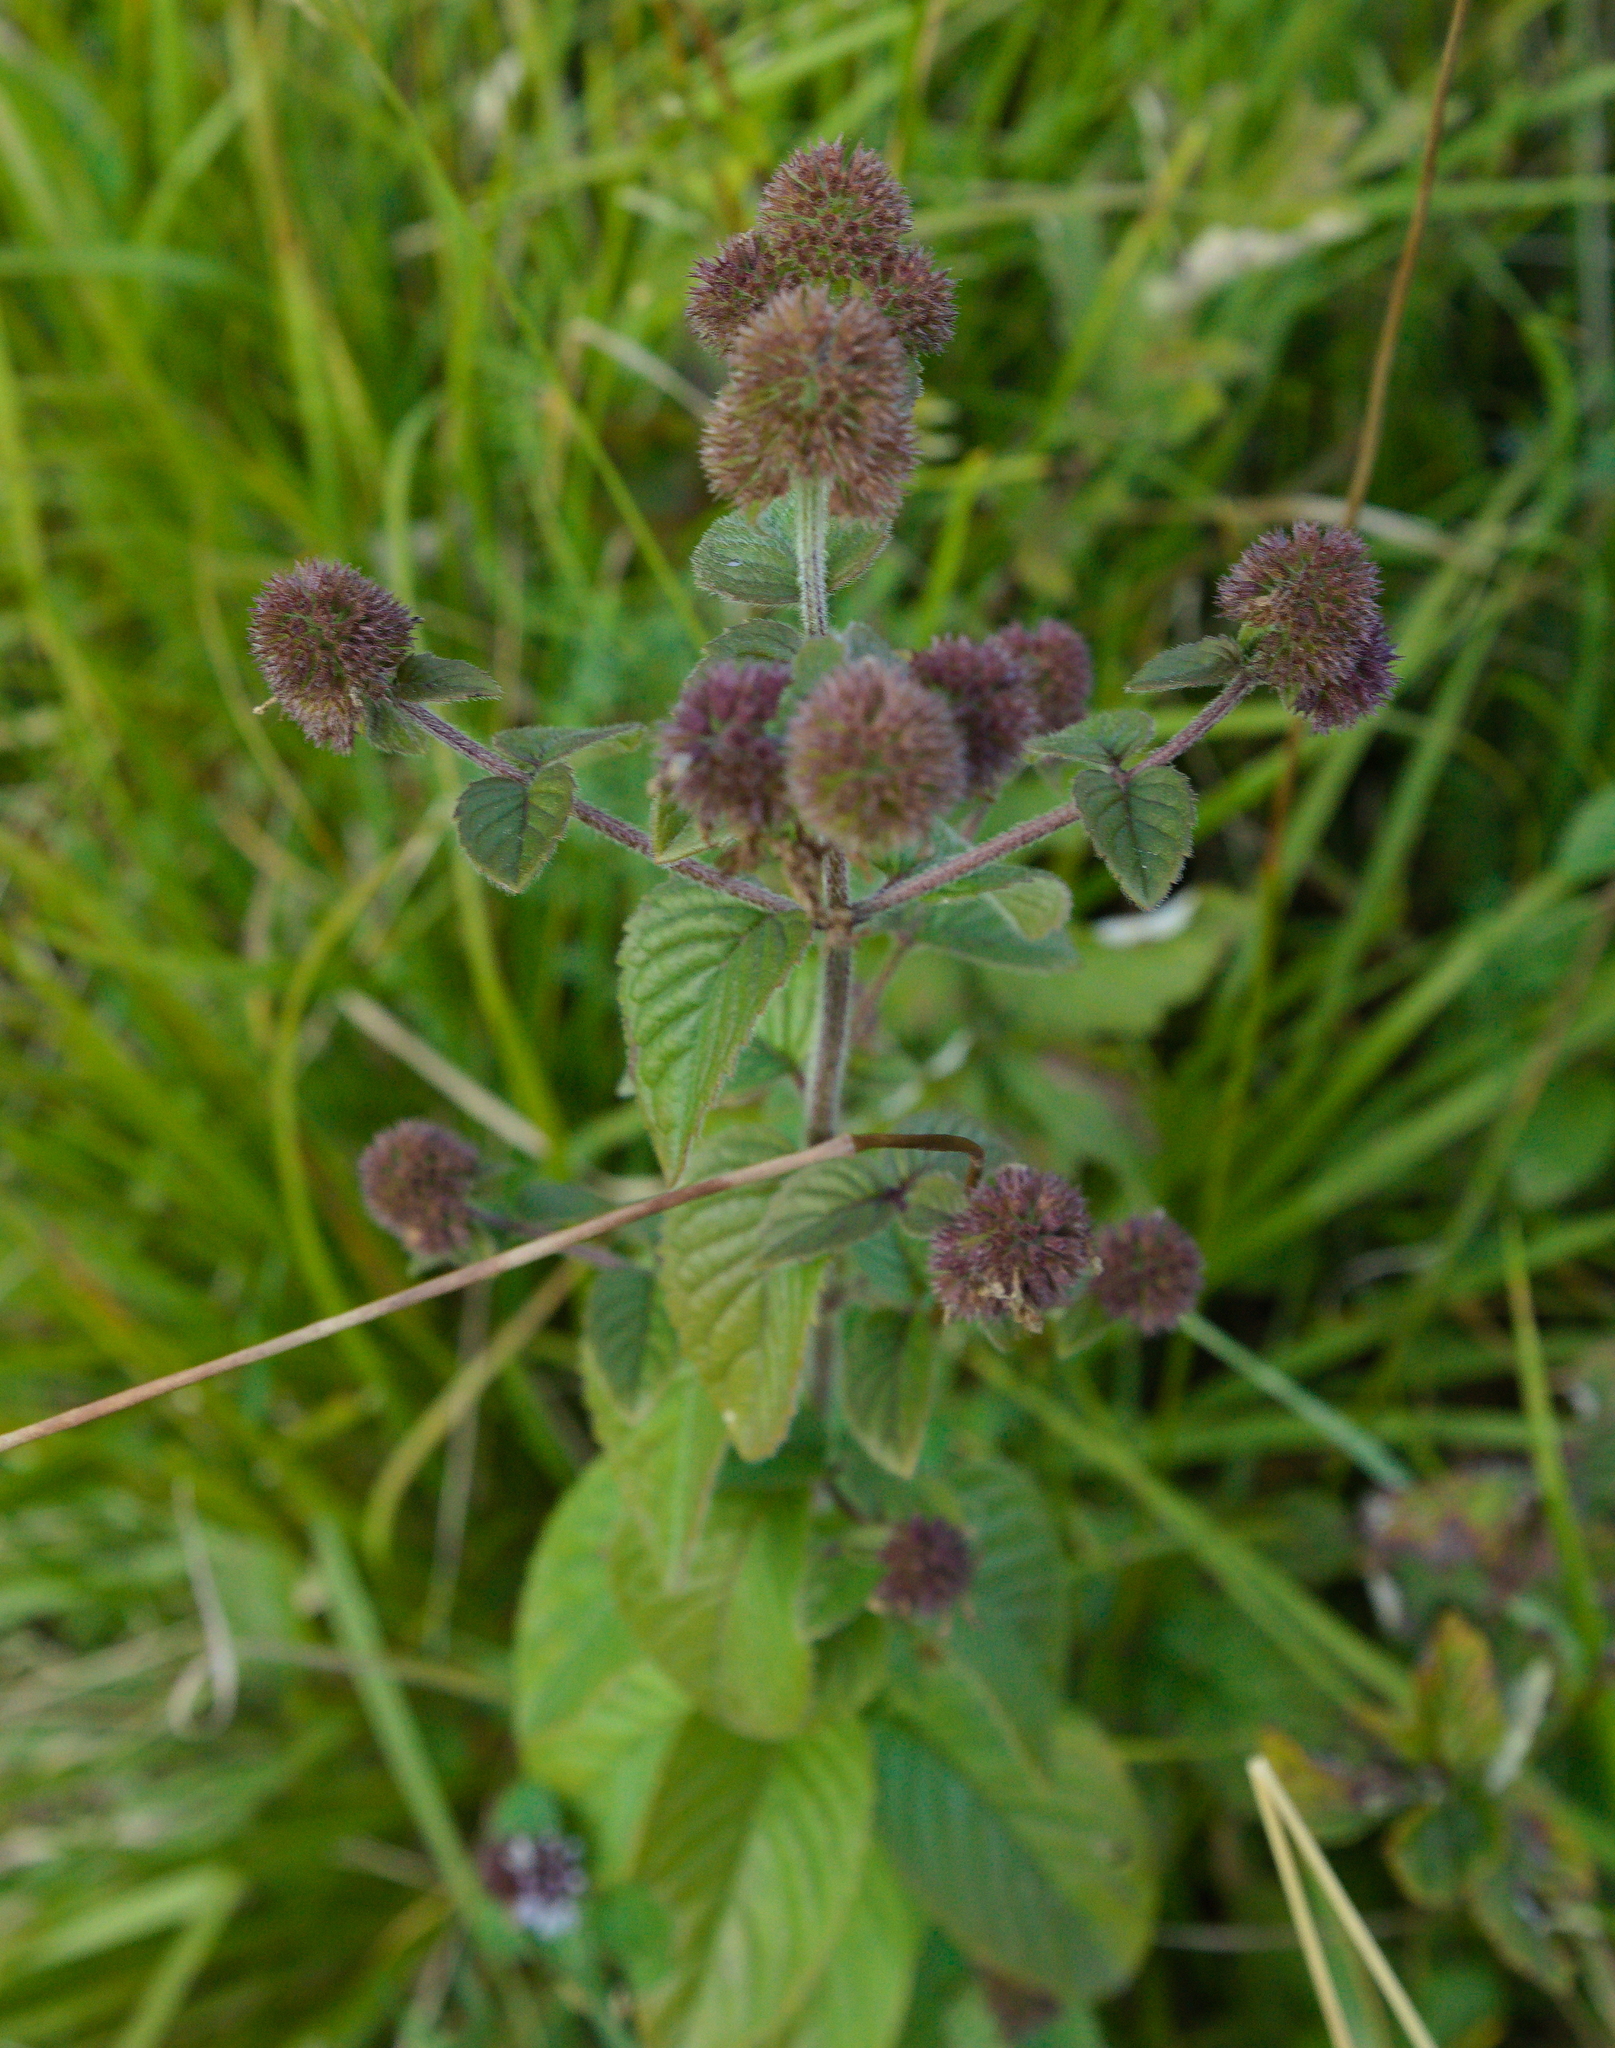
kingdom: Plantae
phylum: Tracheophyta
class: Magnoliopsida
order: Lamiales
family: Lamiaceae
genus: Mentha
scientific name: Mentha aquatica
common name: Water mint
